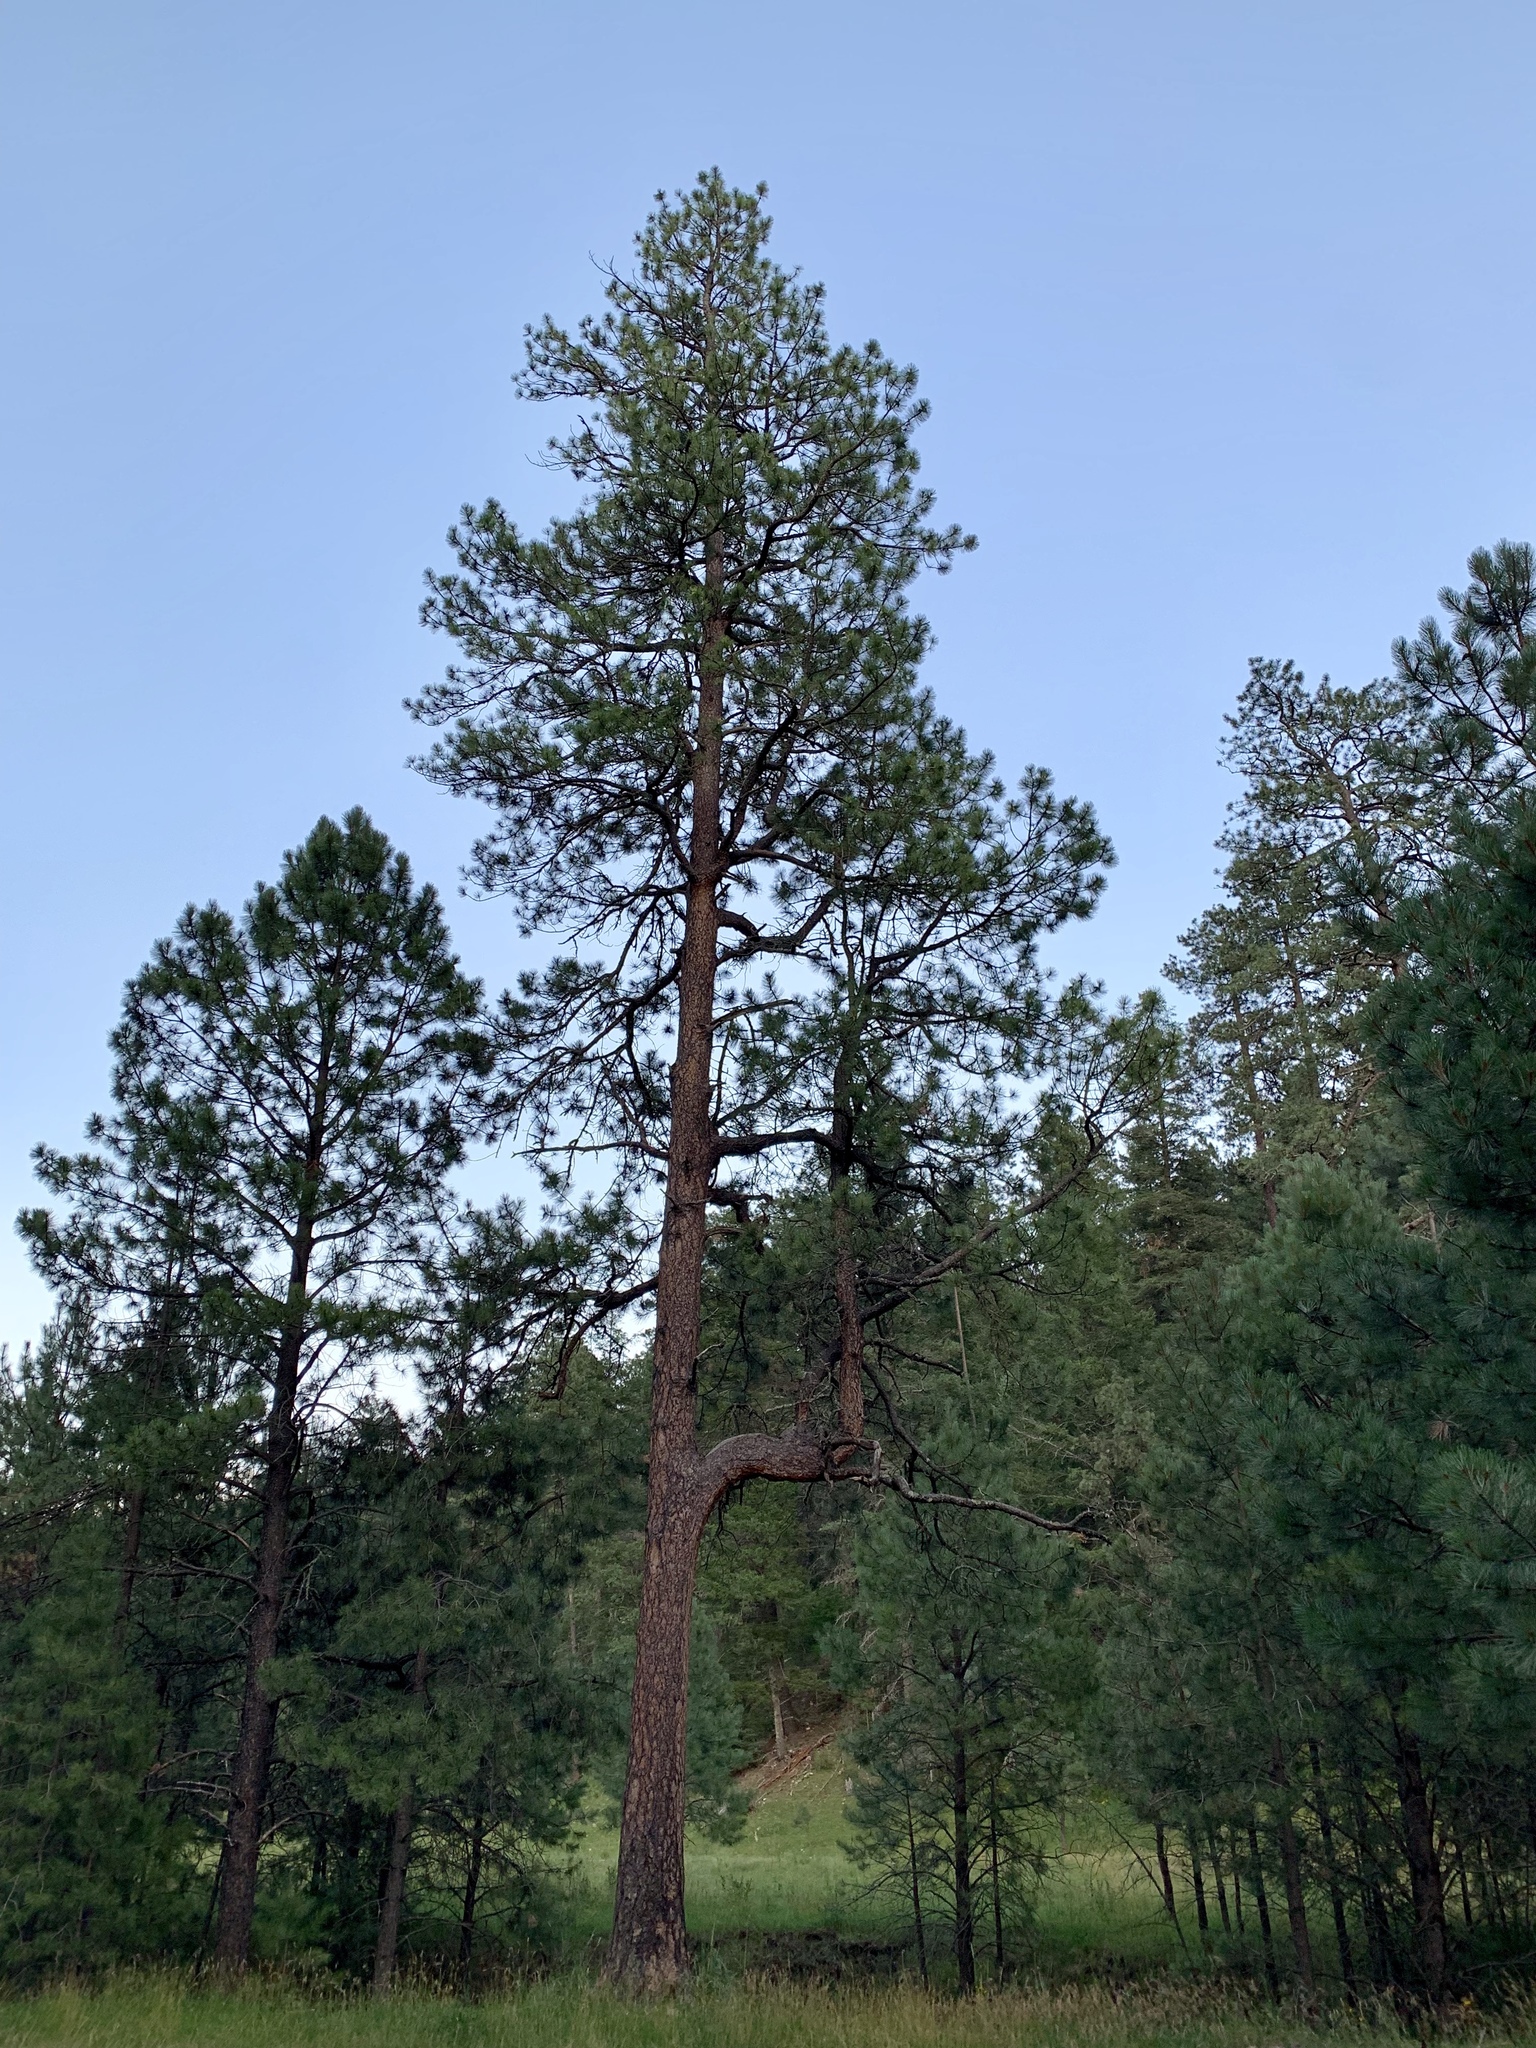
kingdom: Plantae
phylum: Tracheophyta
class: Pinopsida
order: Pinales
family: Pinaceae
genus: Pinus
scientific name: Pinus ponderosa
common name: Western yellow-pine
